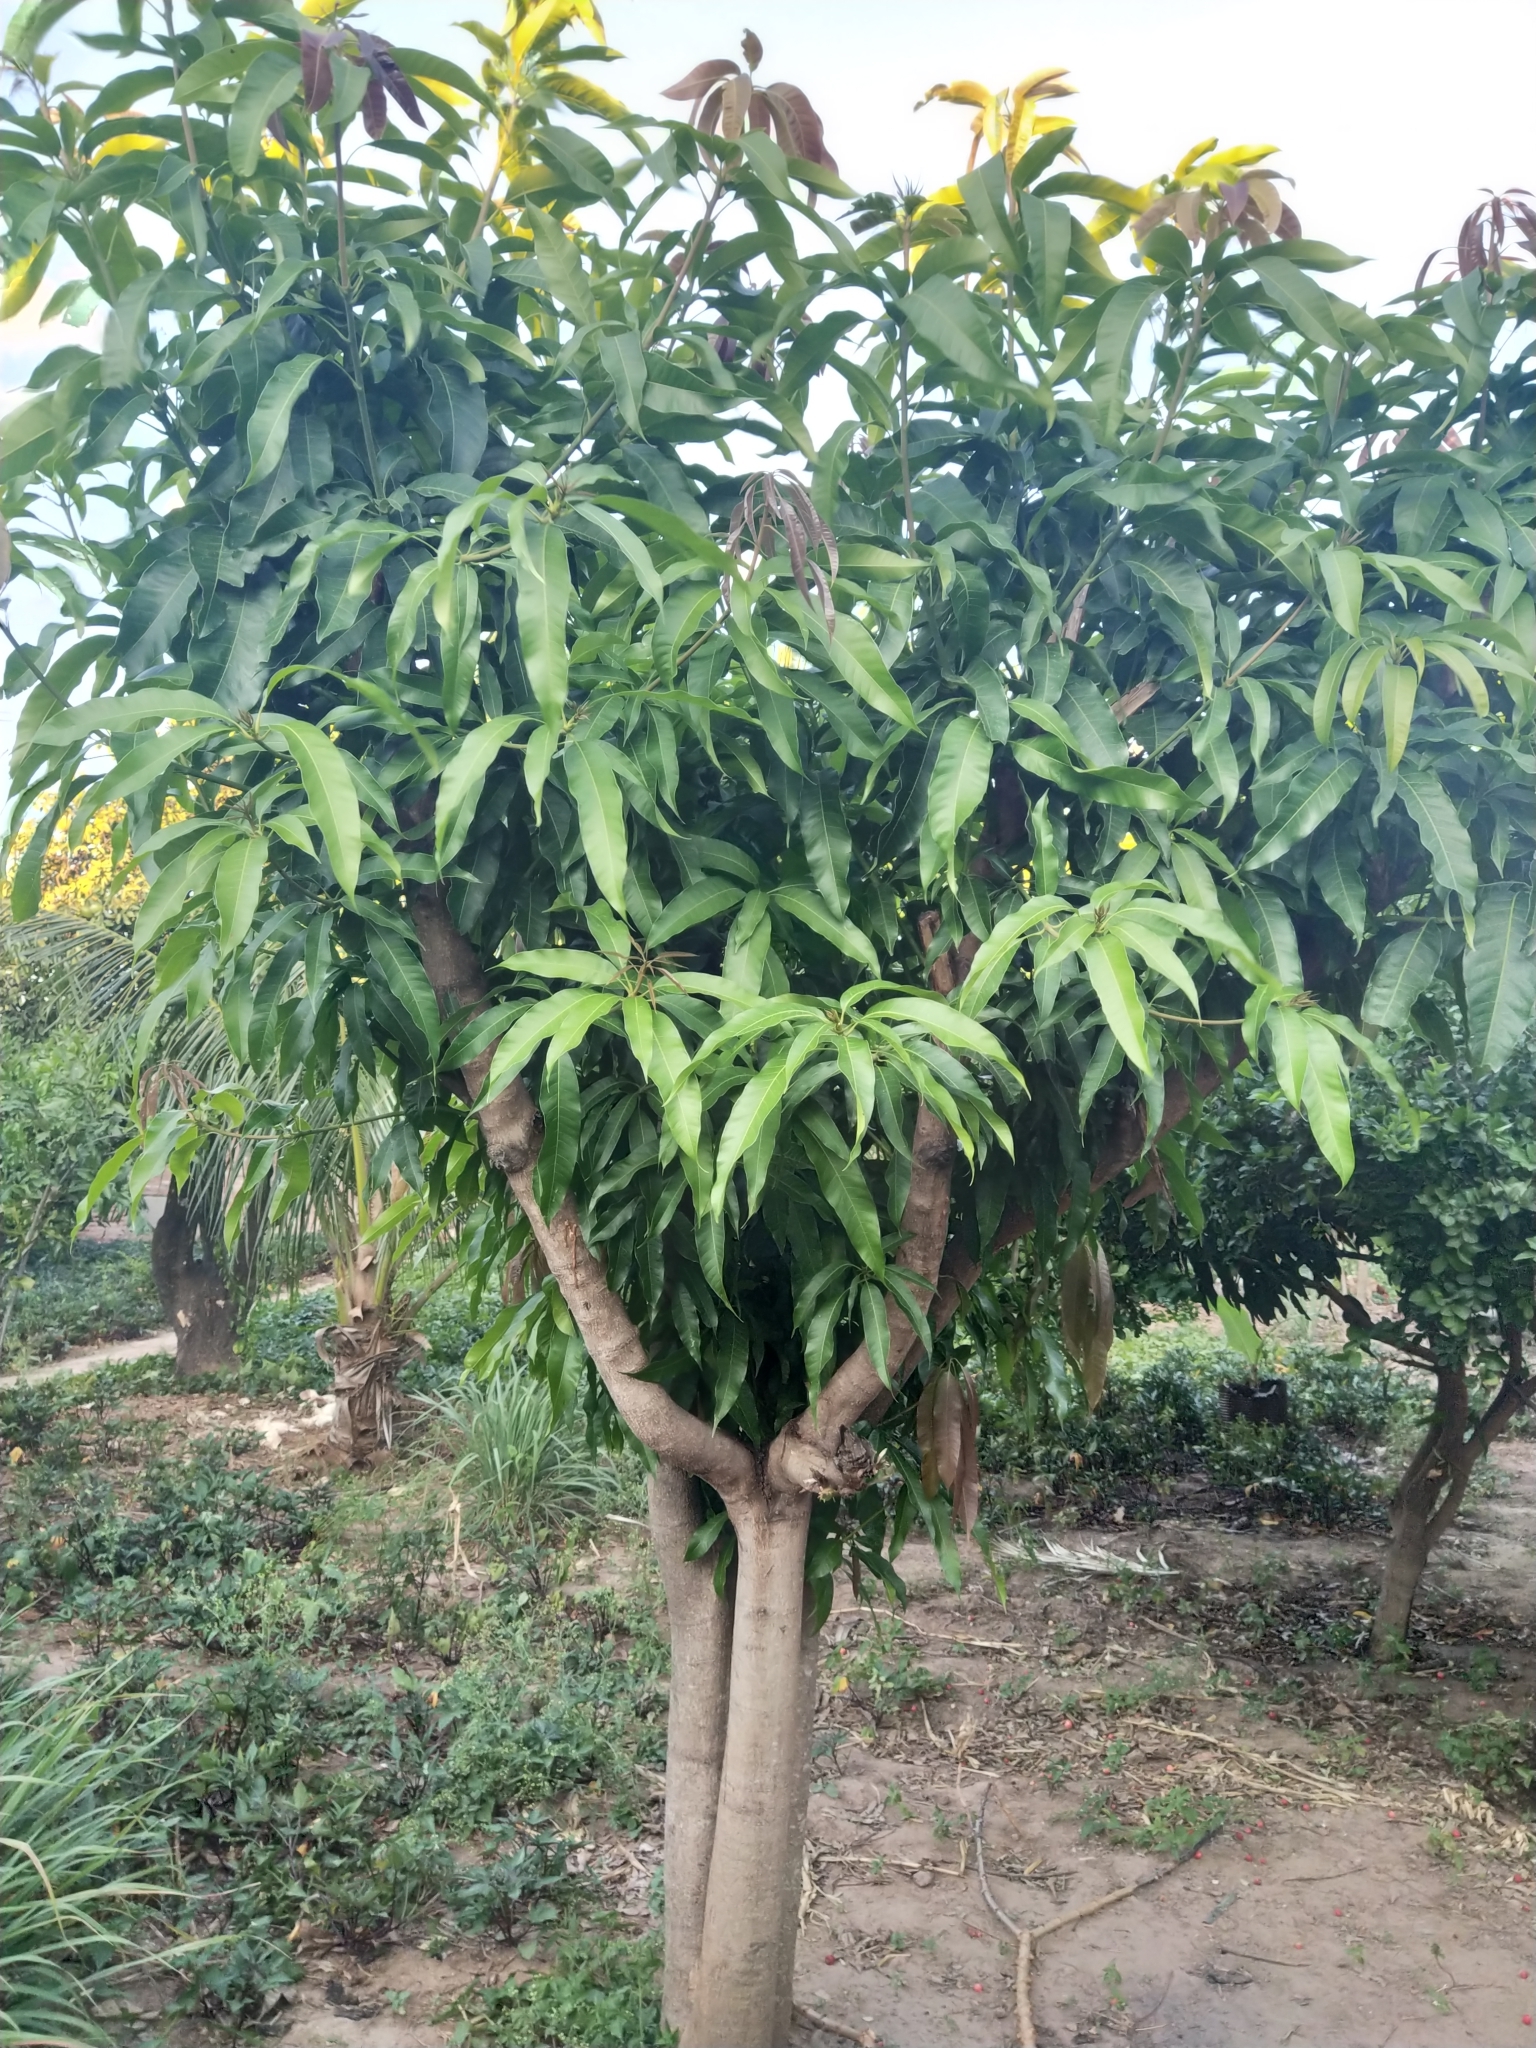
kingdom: Plantae
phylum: Tracheophyta
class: Magnoliopsida
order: Sapindales
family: Anacardiaceae
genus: Mangifera
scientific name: Mangifera indica
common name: Mango
